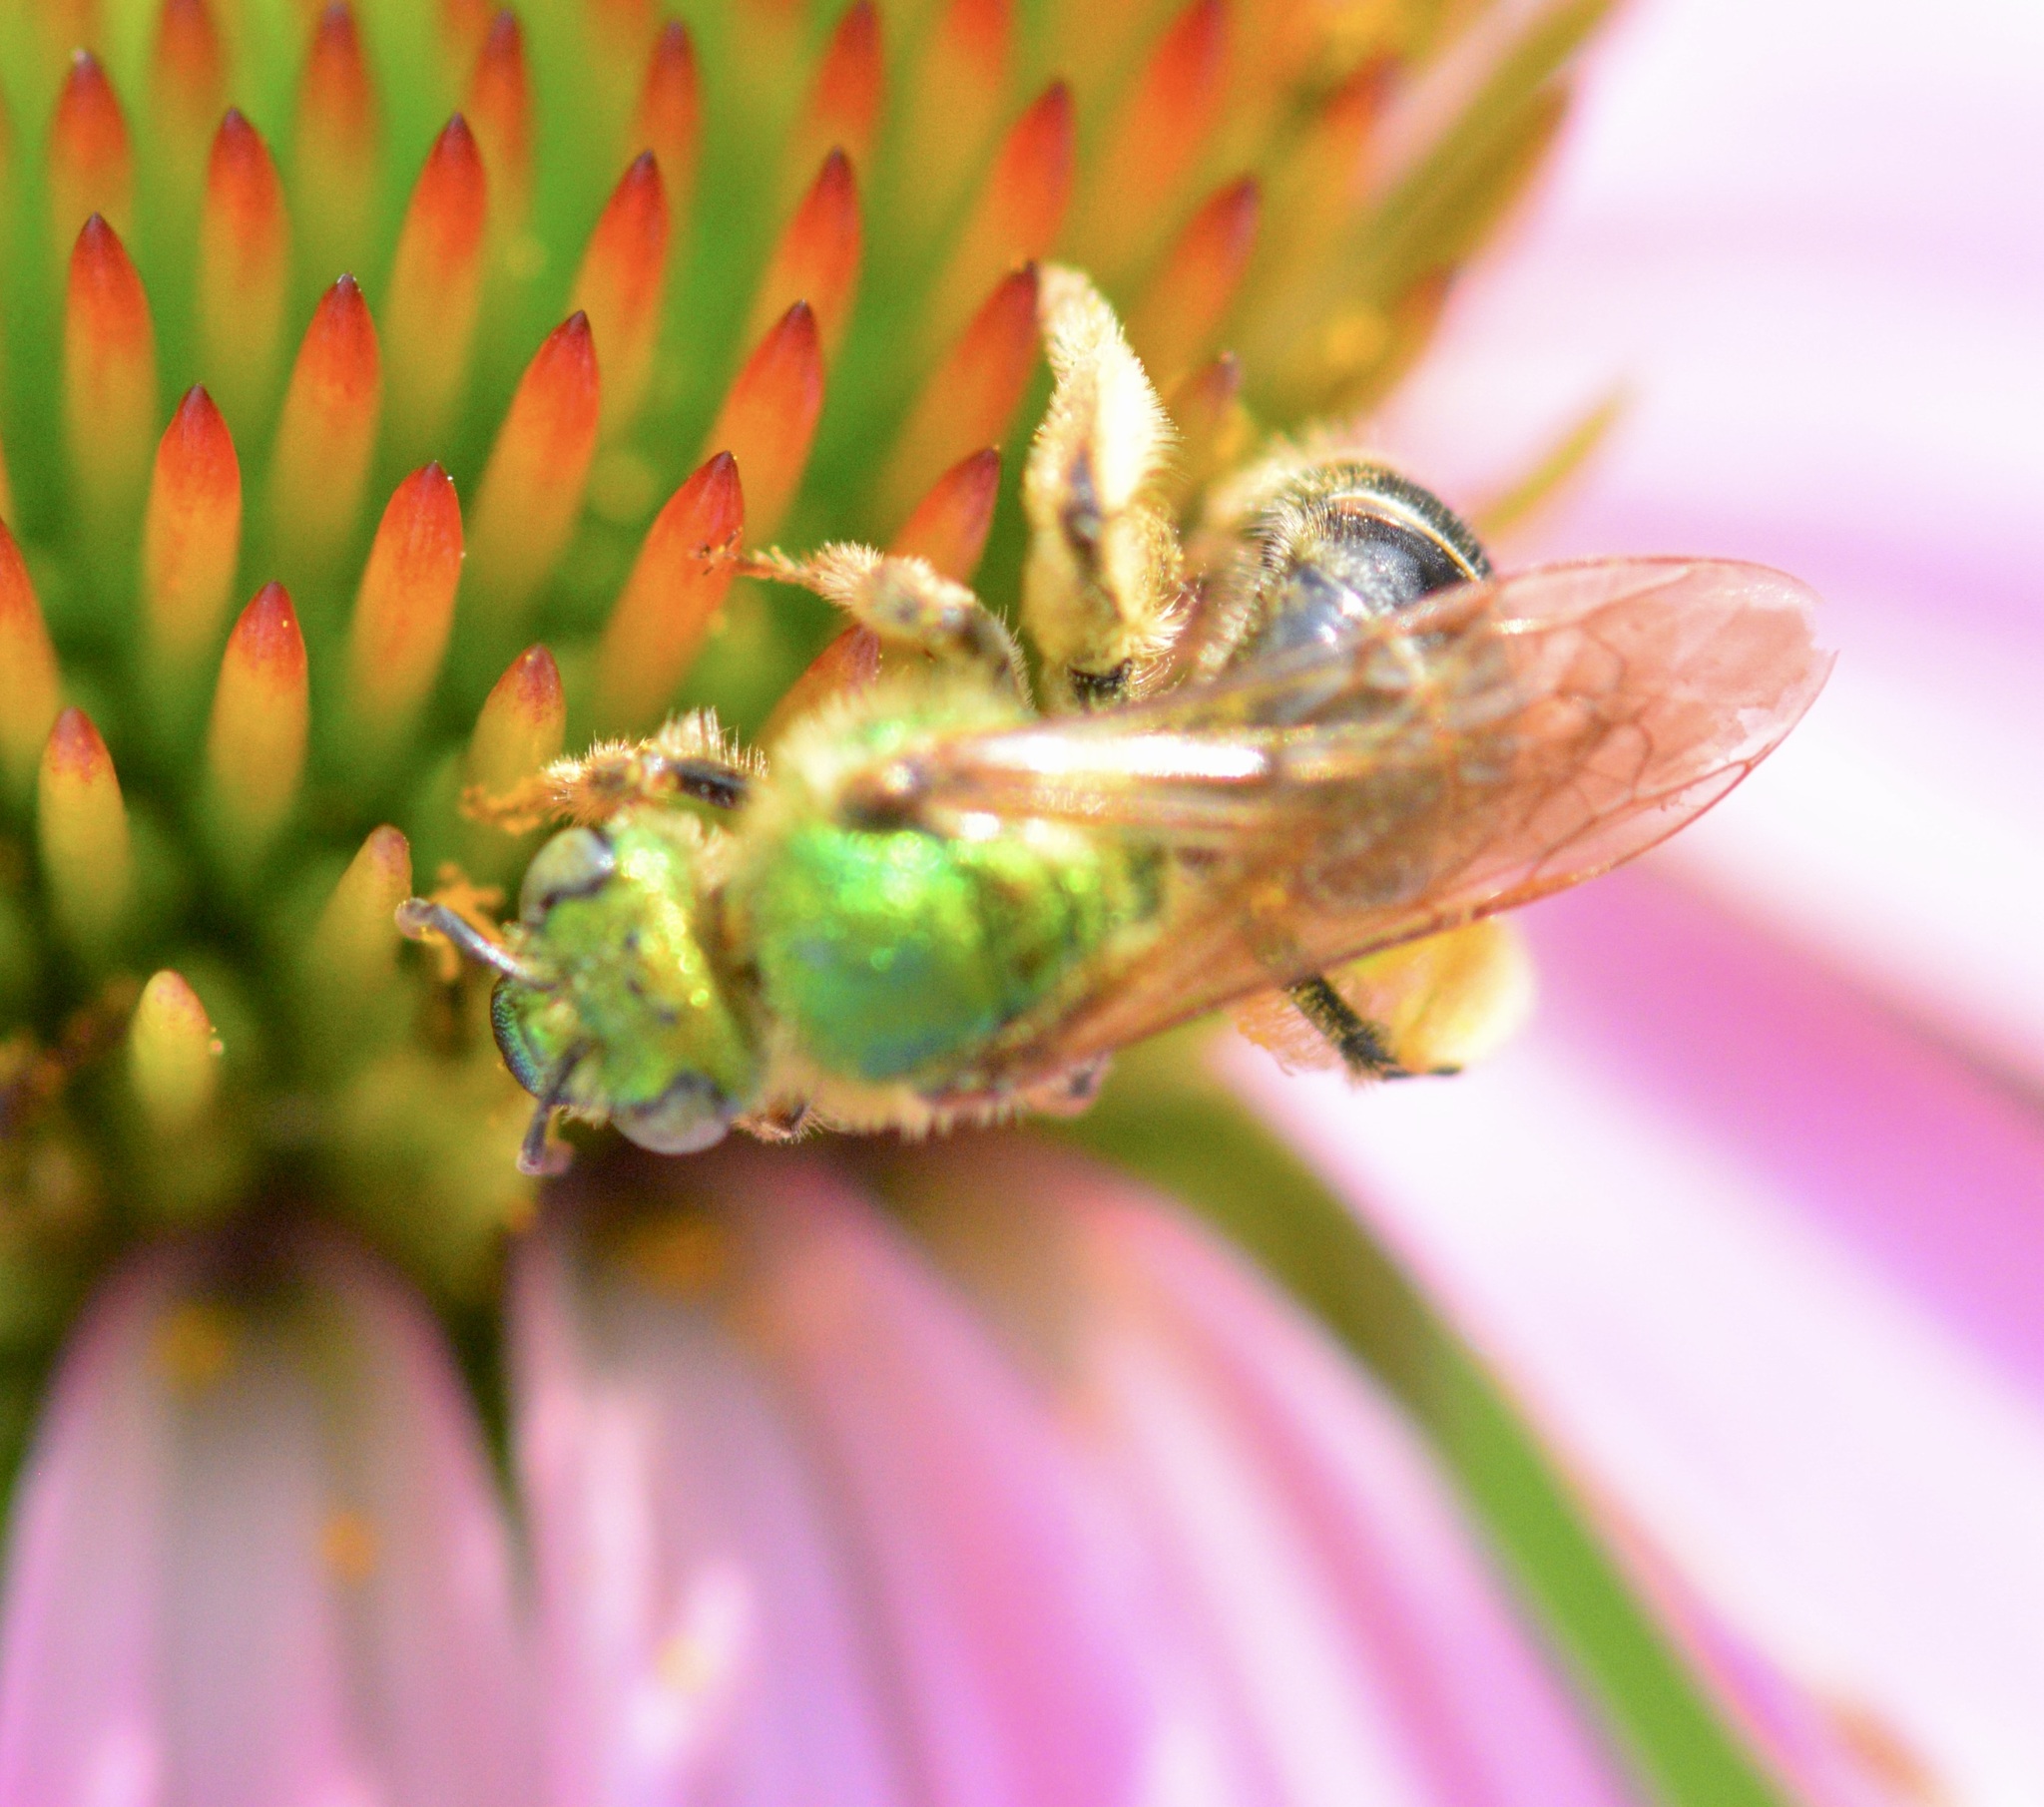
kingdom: Animalia
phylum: Arthropoda
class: Insecta
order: Hymenoptera
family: Halictidae
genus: Agapostemon
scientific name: Agapostemon virescens
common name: Bicolored striped sweat bee
